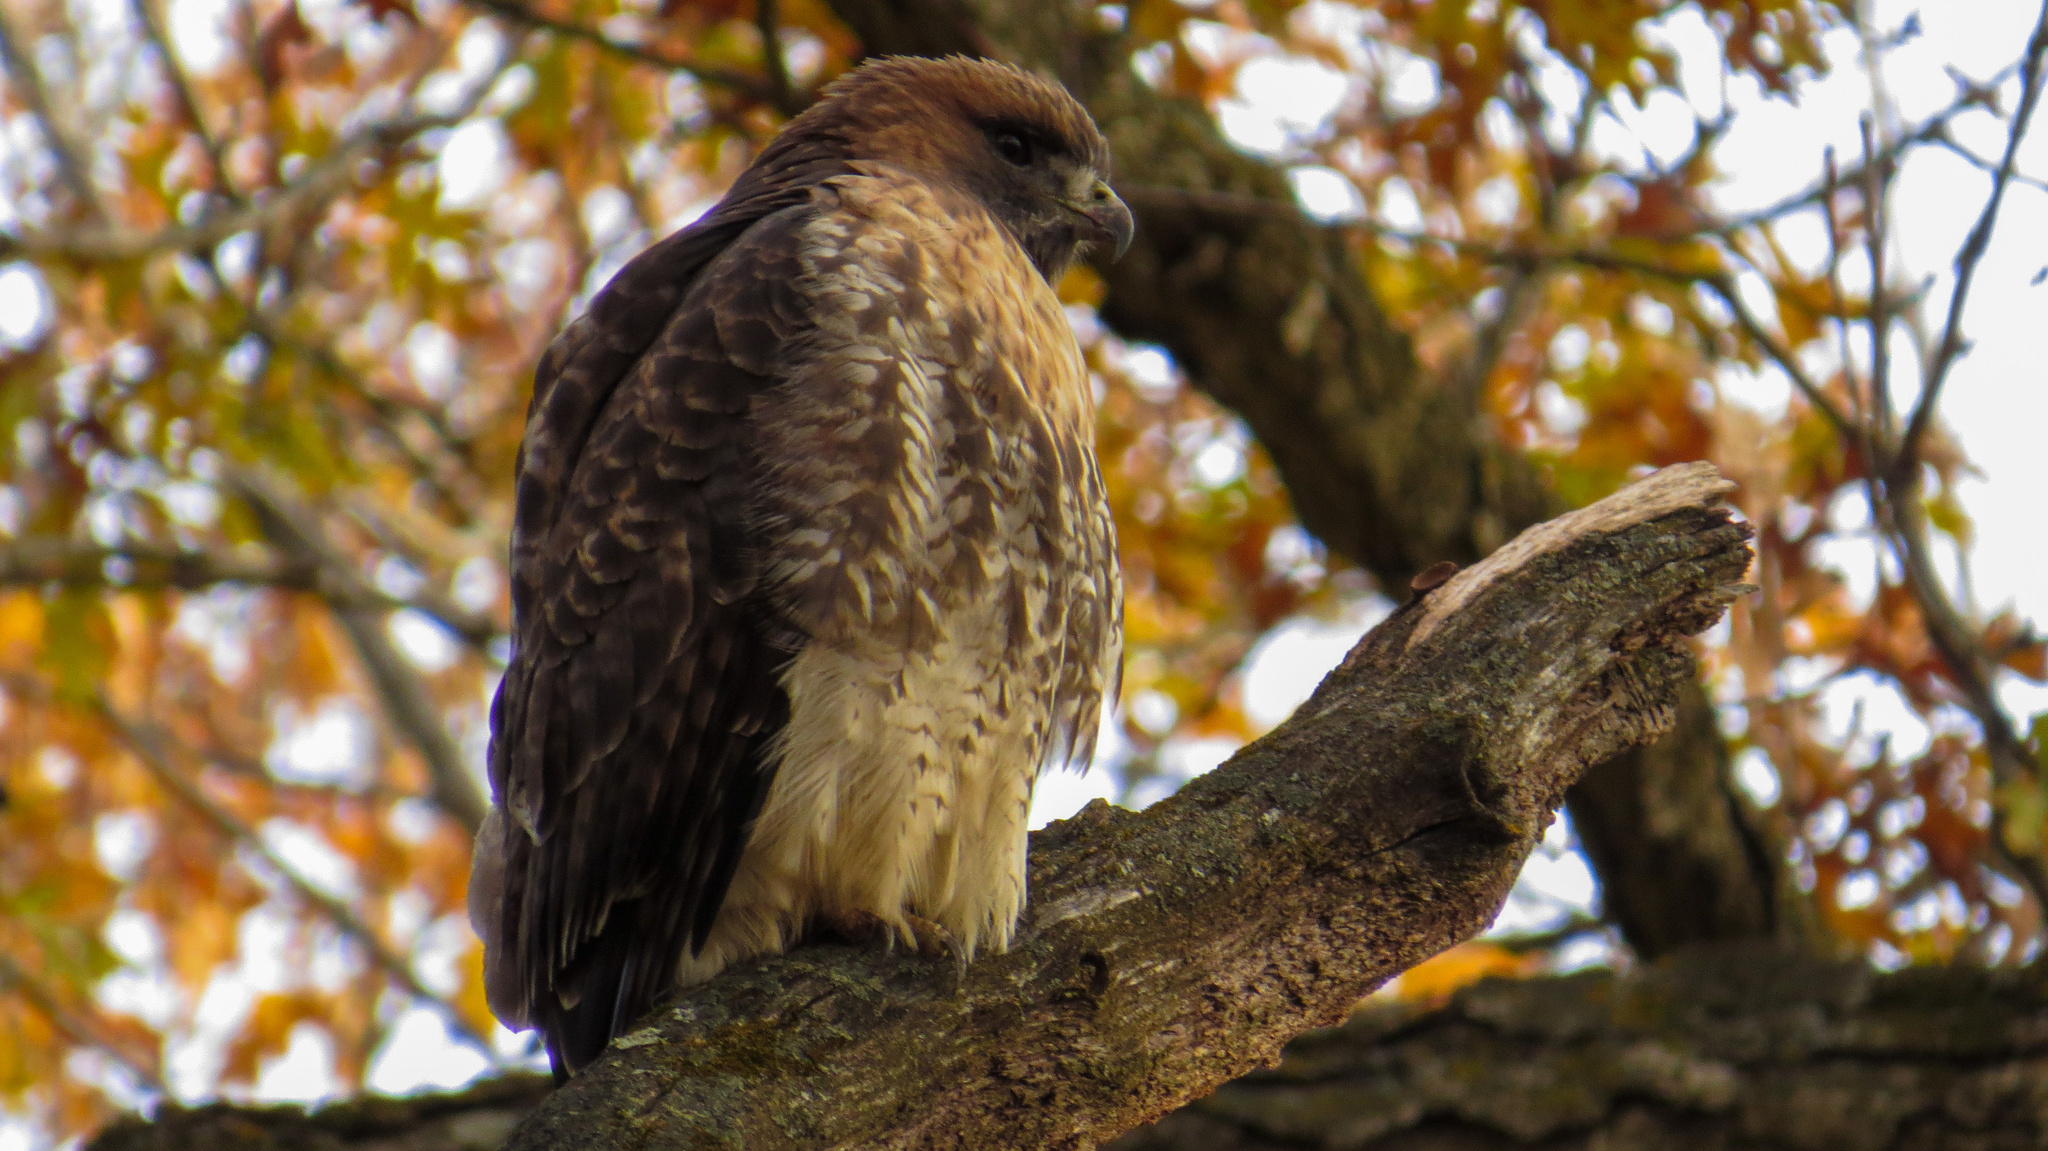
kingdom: Animalia
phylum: Chordata
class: Aves
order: Accipitriformes
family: Accipitridae
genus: Buteo
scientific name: Buteo jamaicensis
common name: Red-tailed hawk
